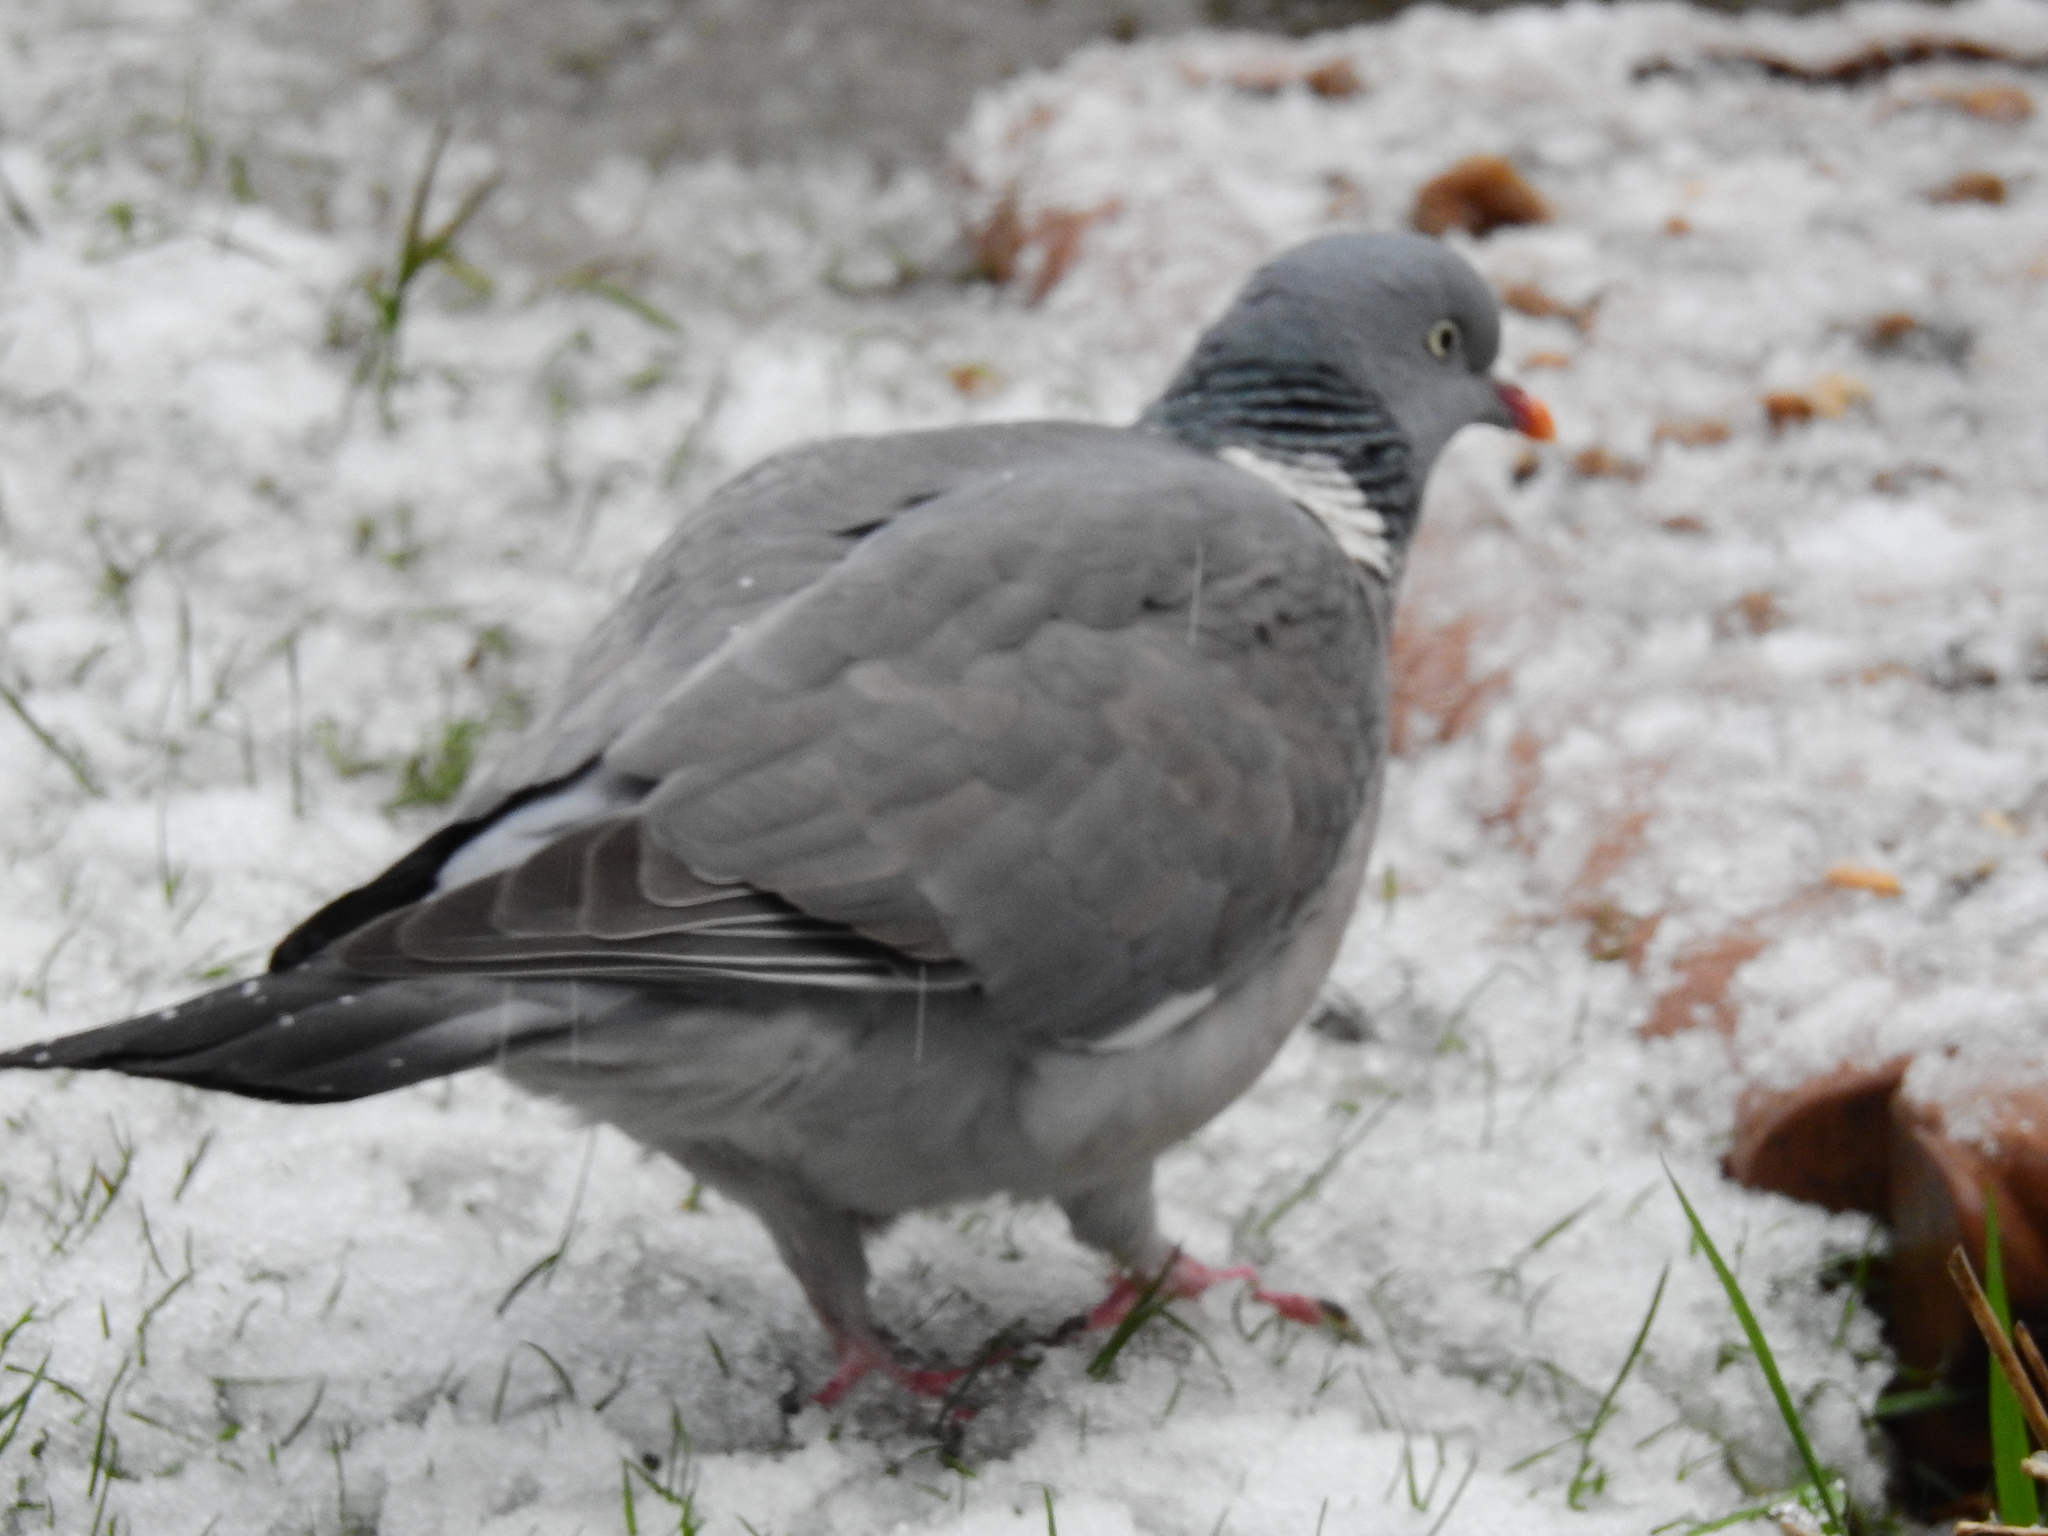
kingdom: Animalia
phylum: Chordata
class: Aves
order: Columbiformes
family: Columbidae
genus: Columba
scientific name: Columba palumbus
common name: Common wood pigeon
